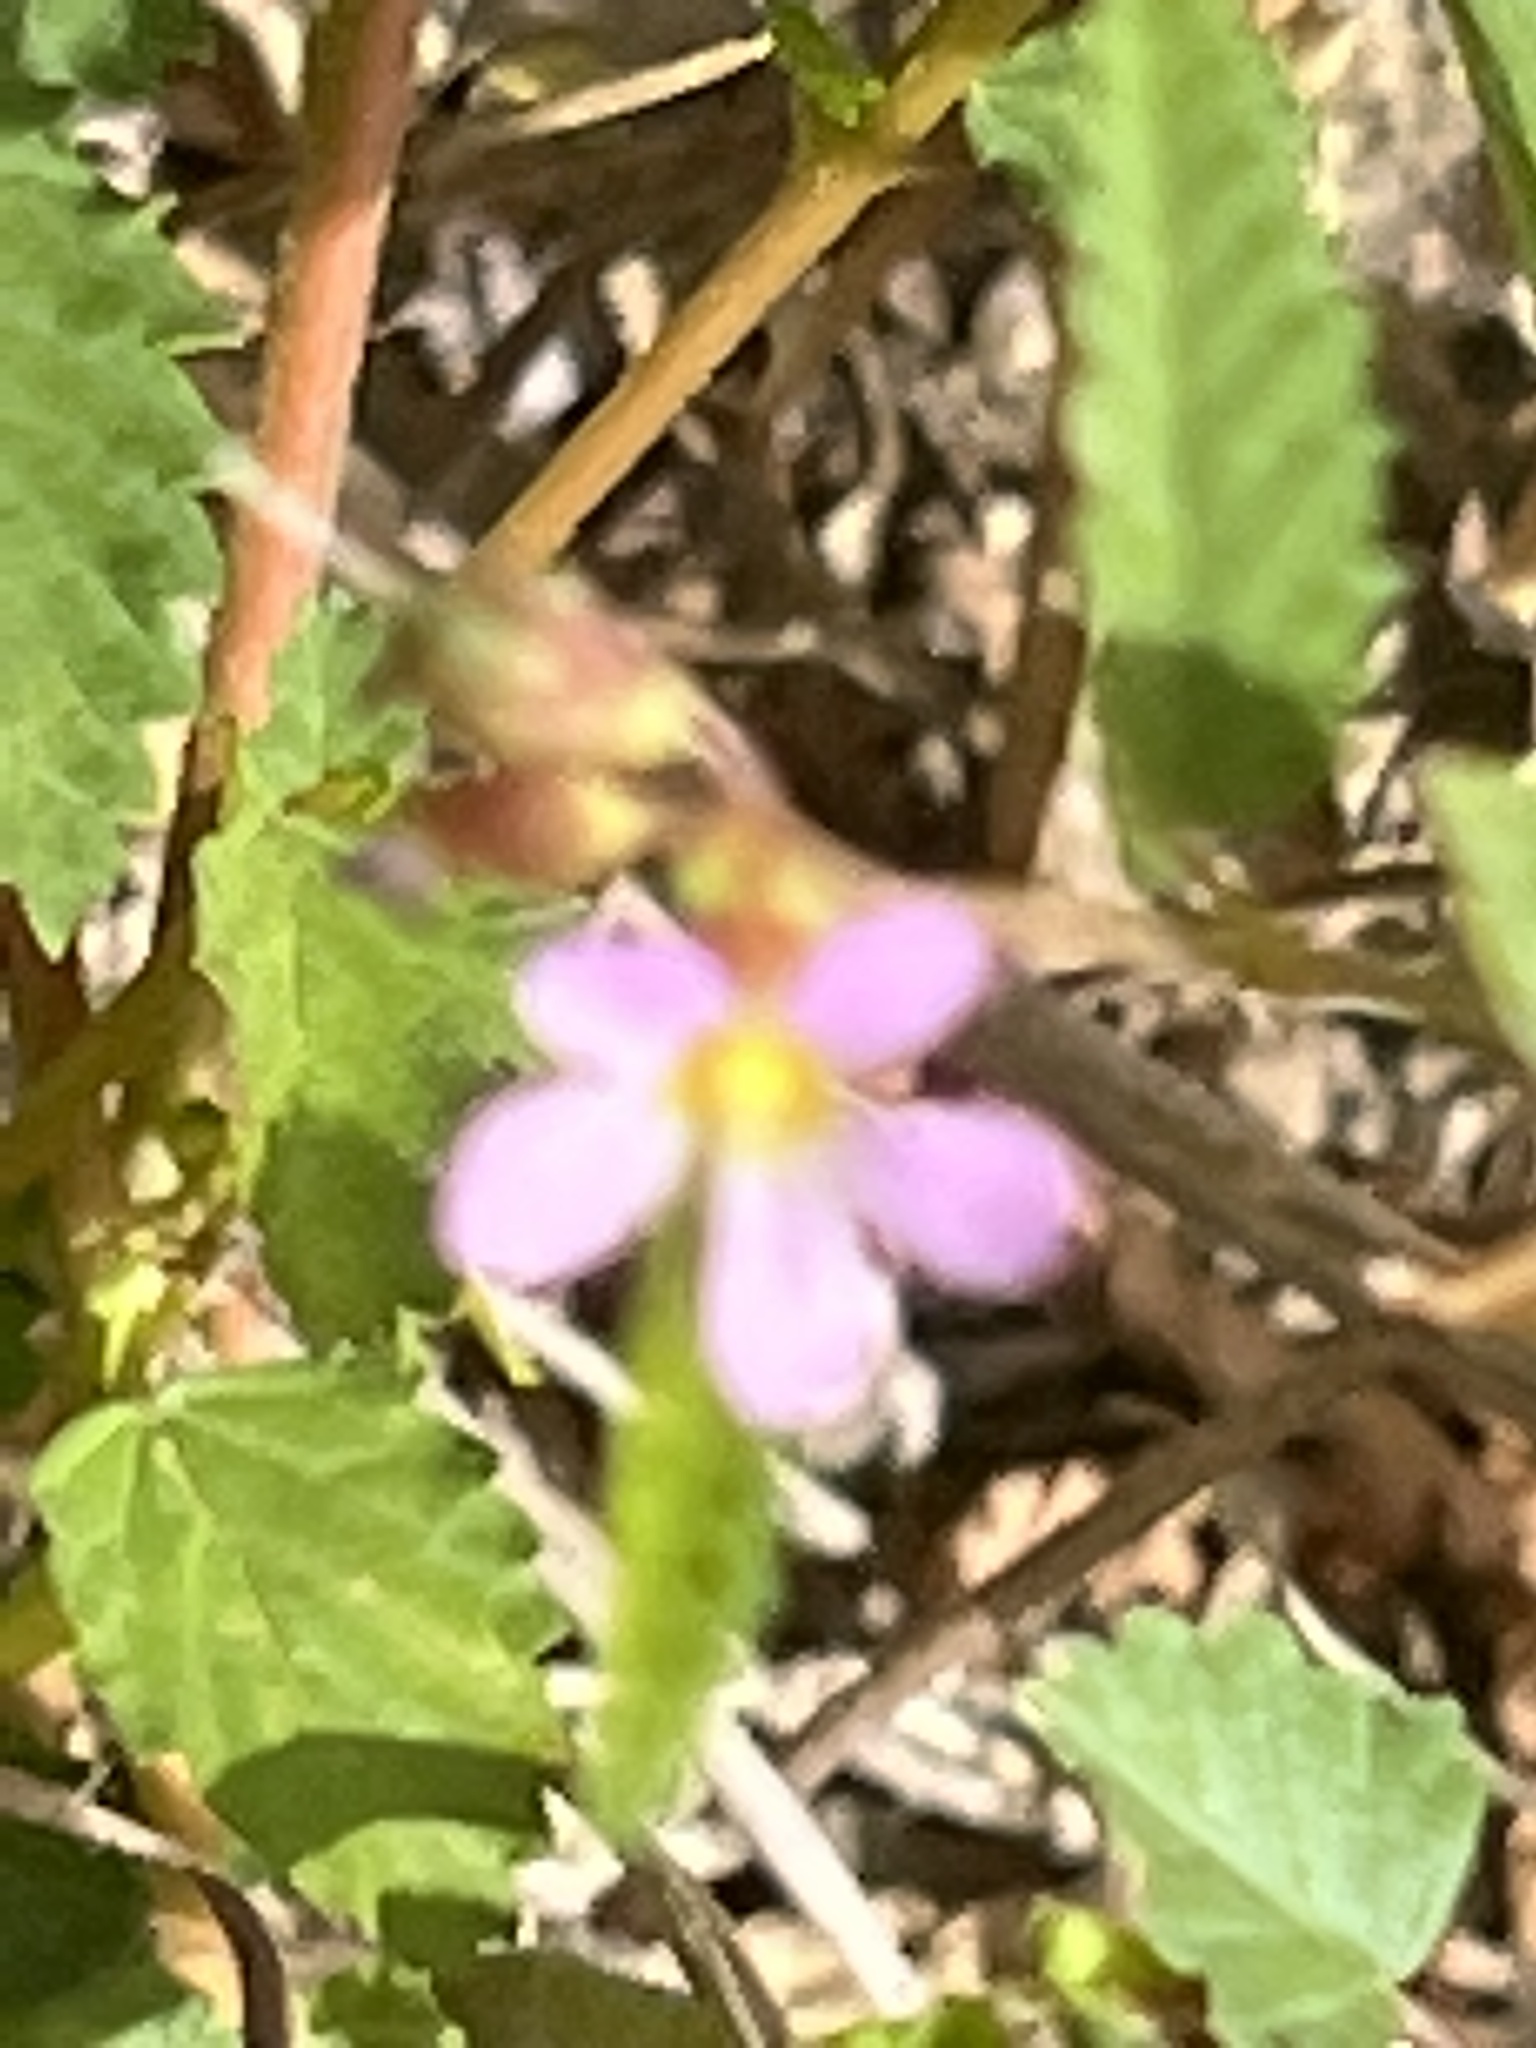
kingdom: Plantae
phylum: Tracheophyta
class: Magnoliopsida
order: Malvales
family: Malvaceae
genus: Melochia
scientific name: Melochia pyramidata
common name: Pyramidflower
